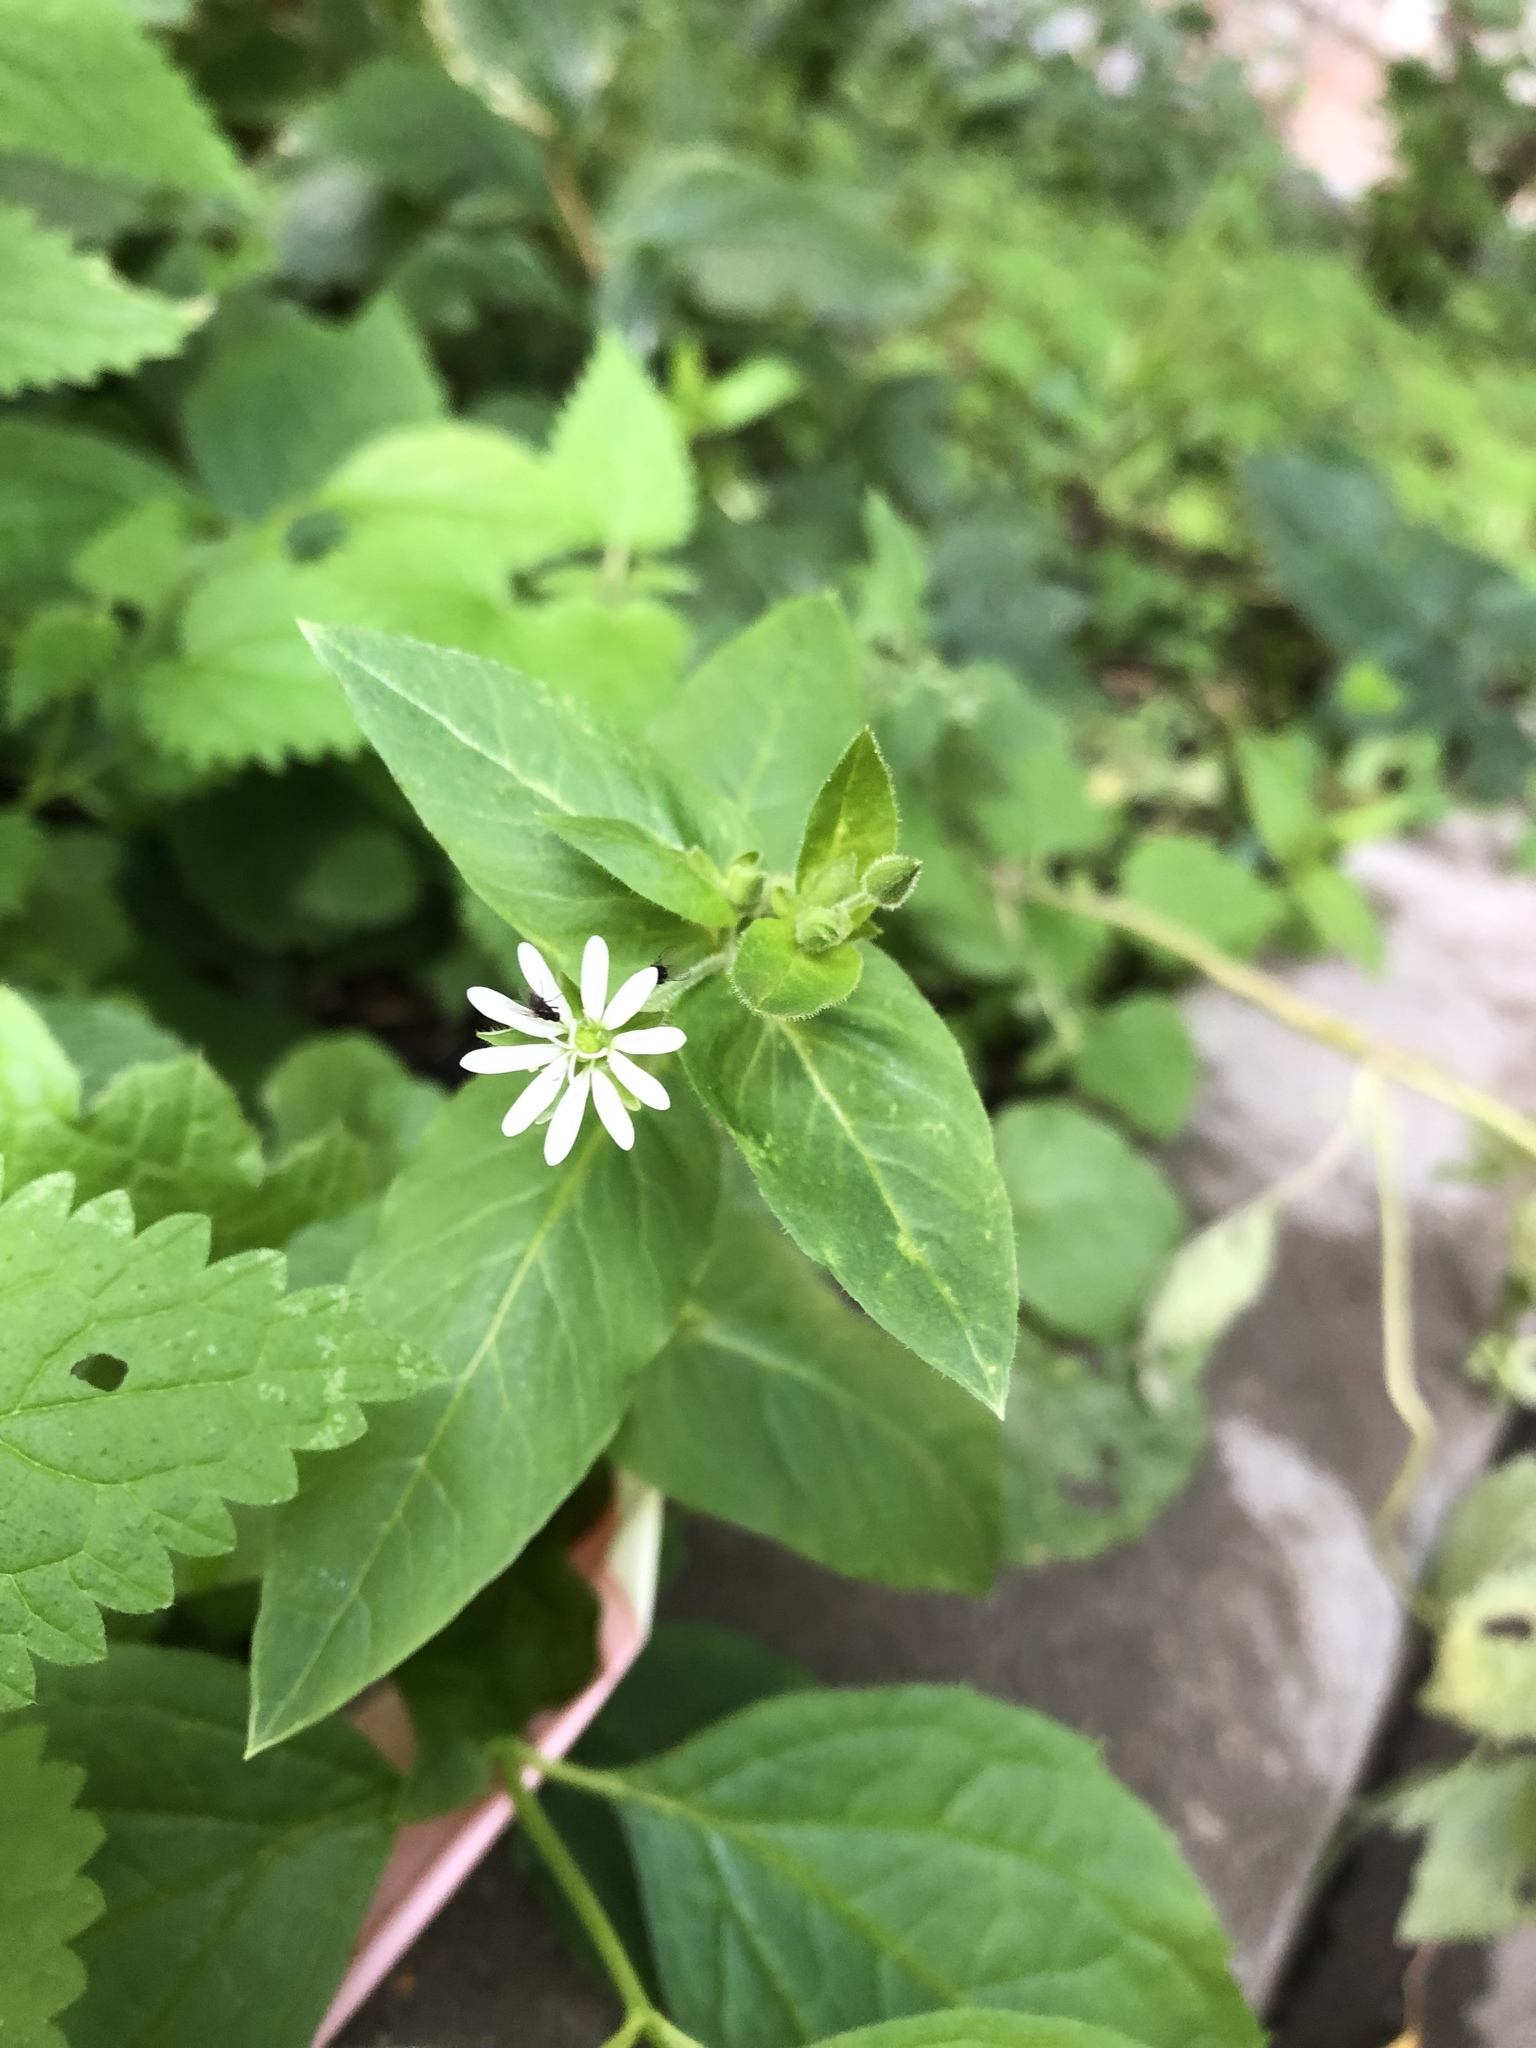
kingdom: Plantae
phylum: Tracheophyta
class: Magnoliopsida
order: Caryophyllales
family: Caryophyllaceae
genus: Stellaria
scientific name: Stellaria aquatica
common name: Water chickweed
